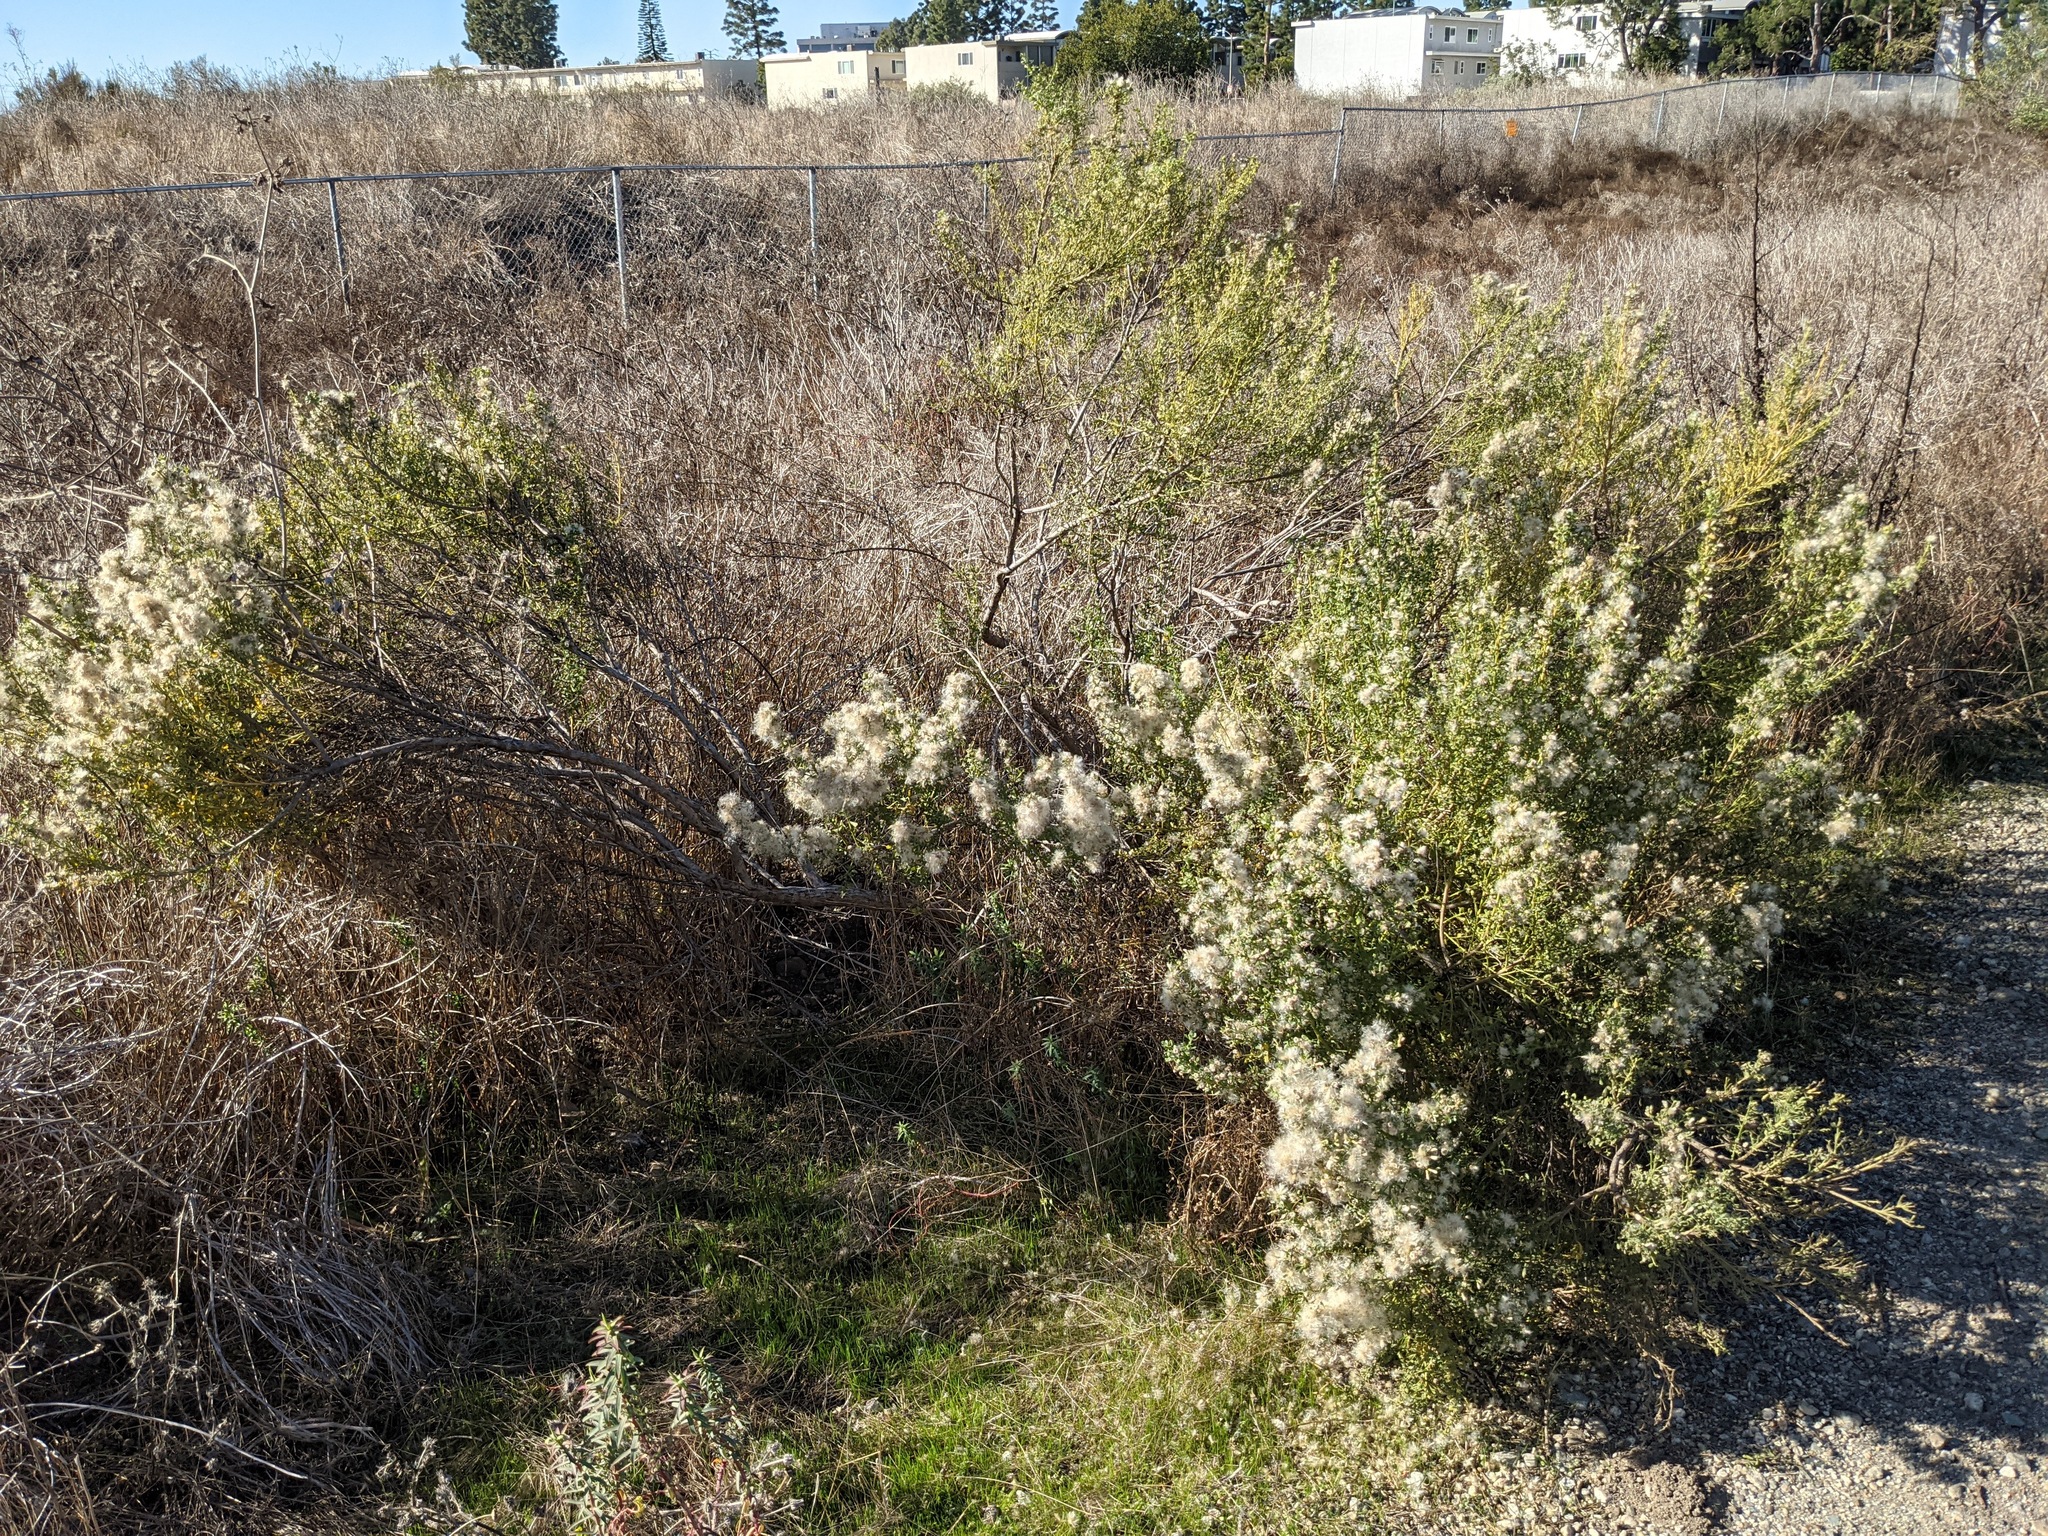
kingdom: Plantae
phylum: Tracheophyta
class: Magnoliopsida
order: Asterales
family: Asteraceae
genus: Baccharis
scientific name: Baccharis pilularis
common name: Coyotebrush
